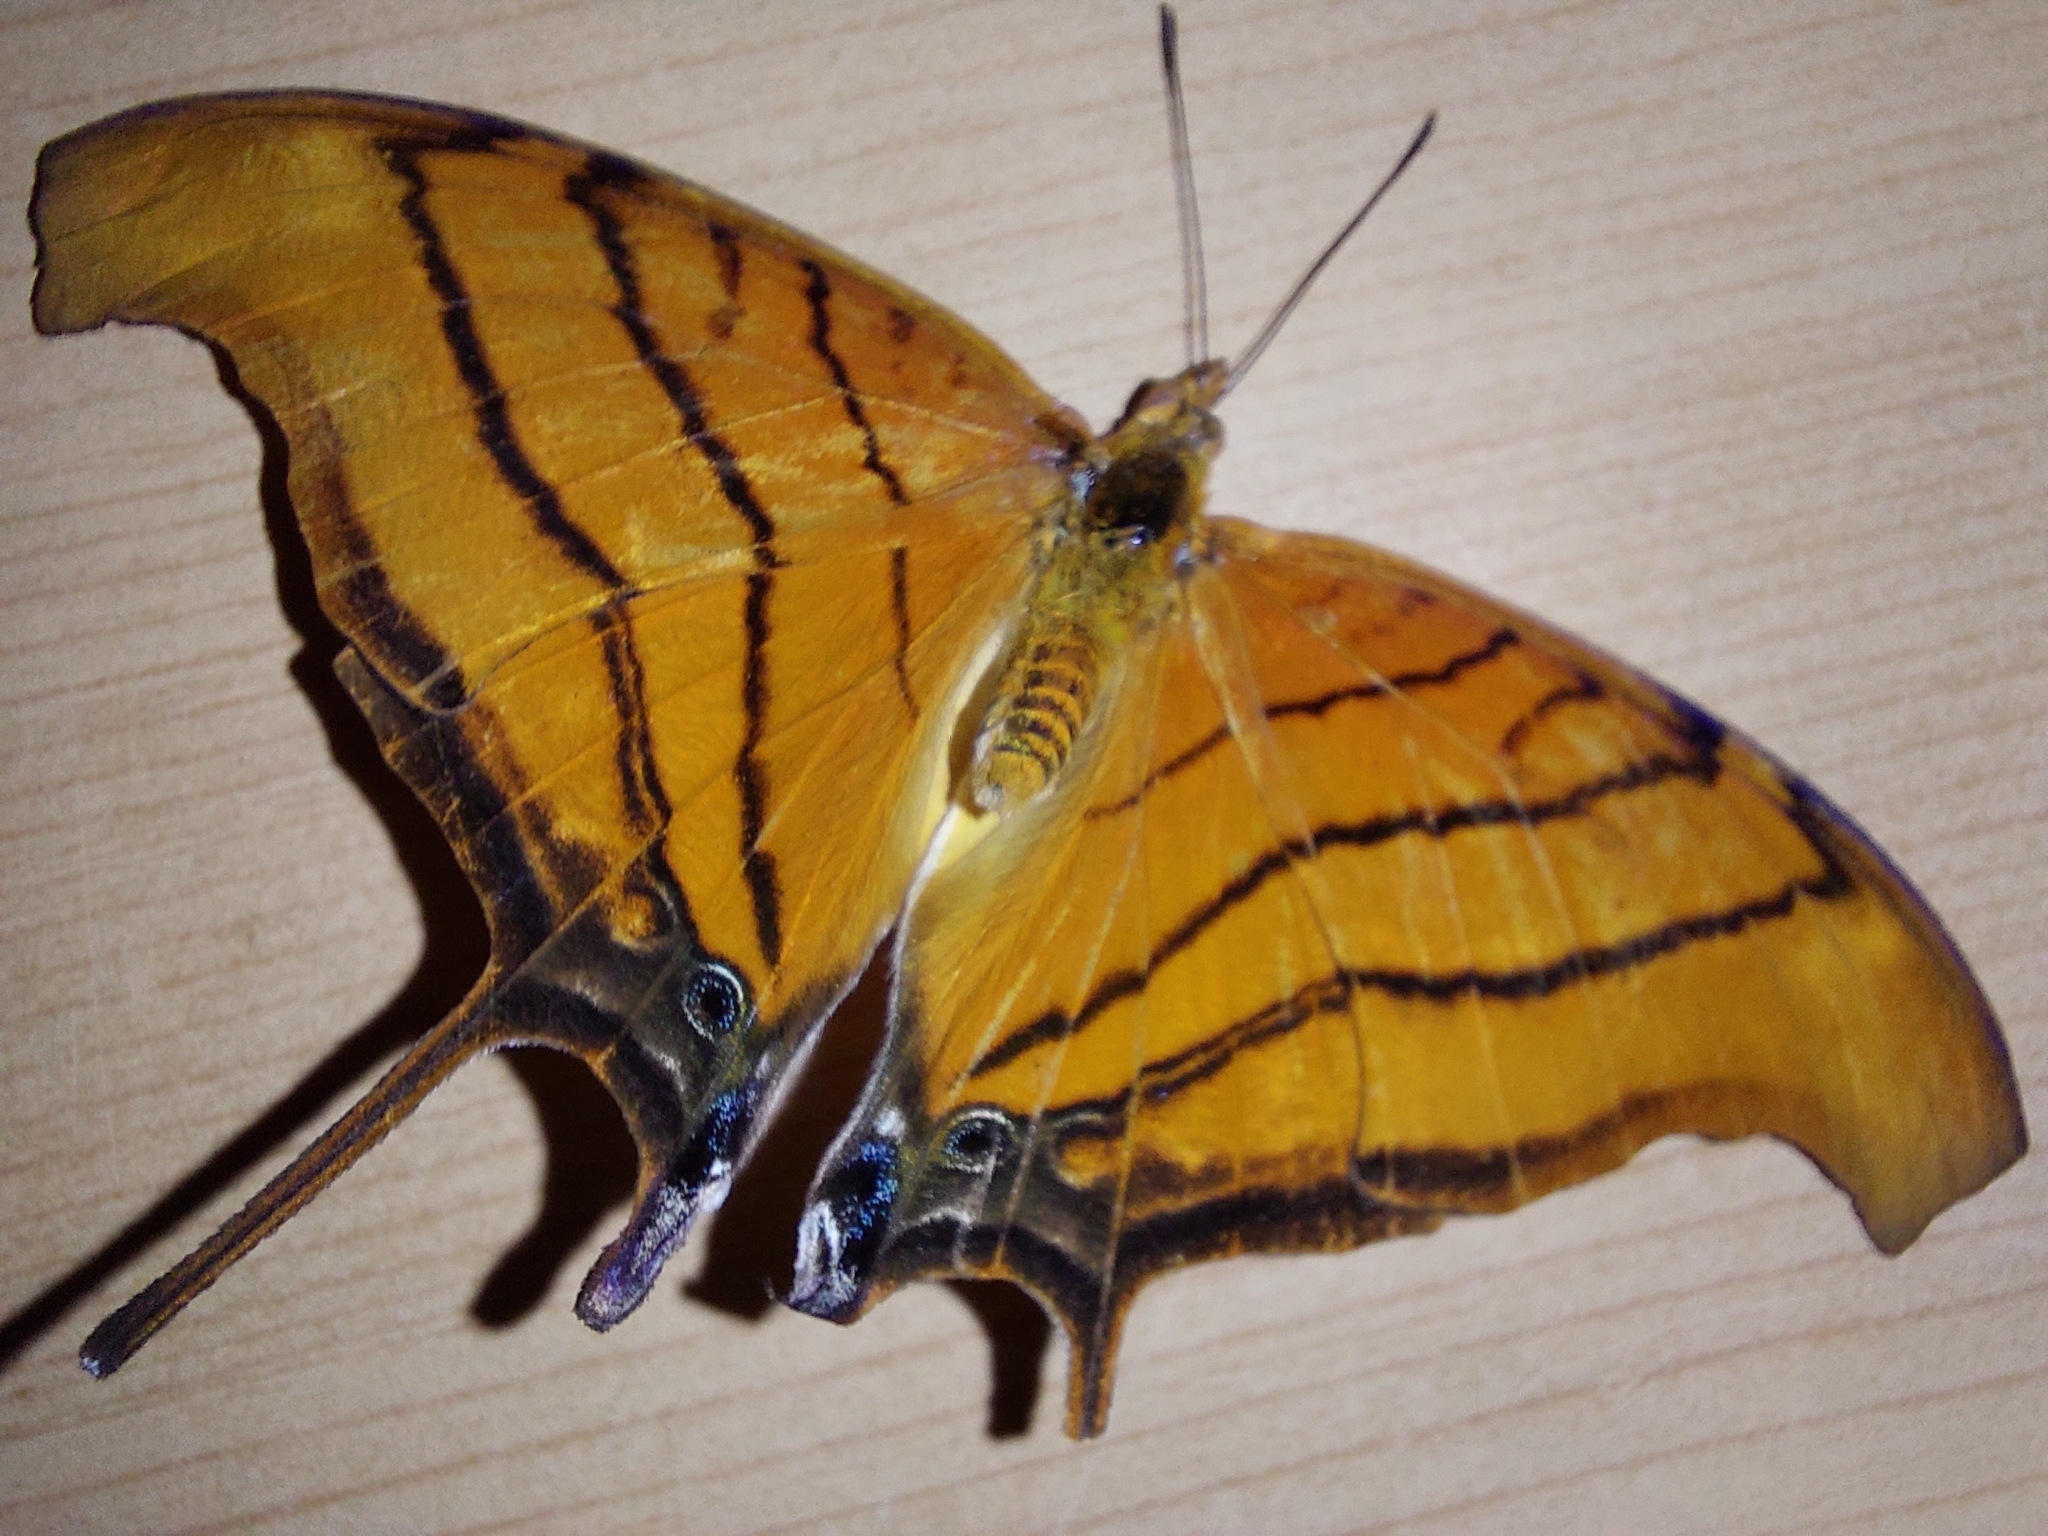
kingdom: Animalia
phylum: Arthropoda
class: Insecta
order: Lepidoptera
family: Nymphalidae
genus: Marpesia
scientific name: Marpesia petreus
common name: Red dagger wing
